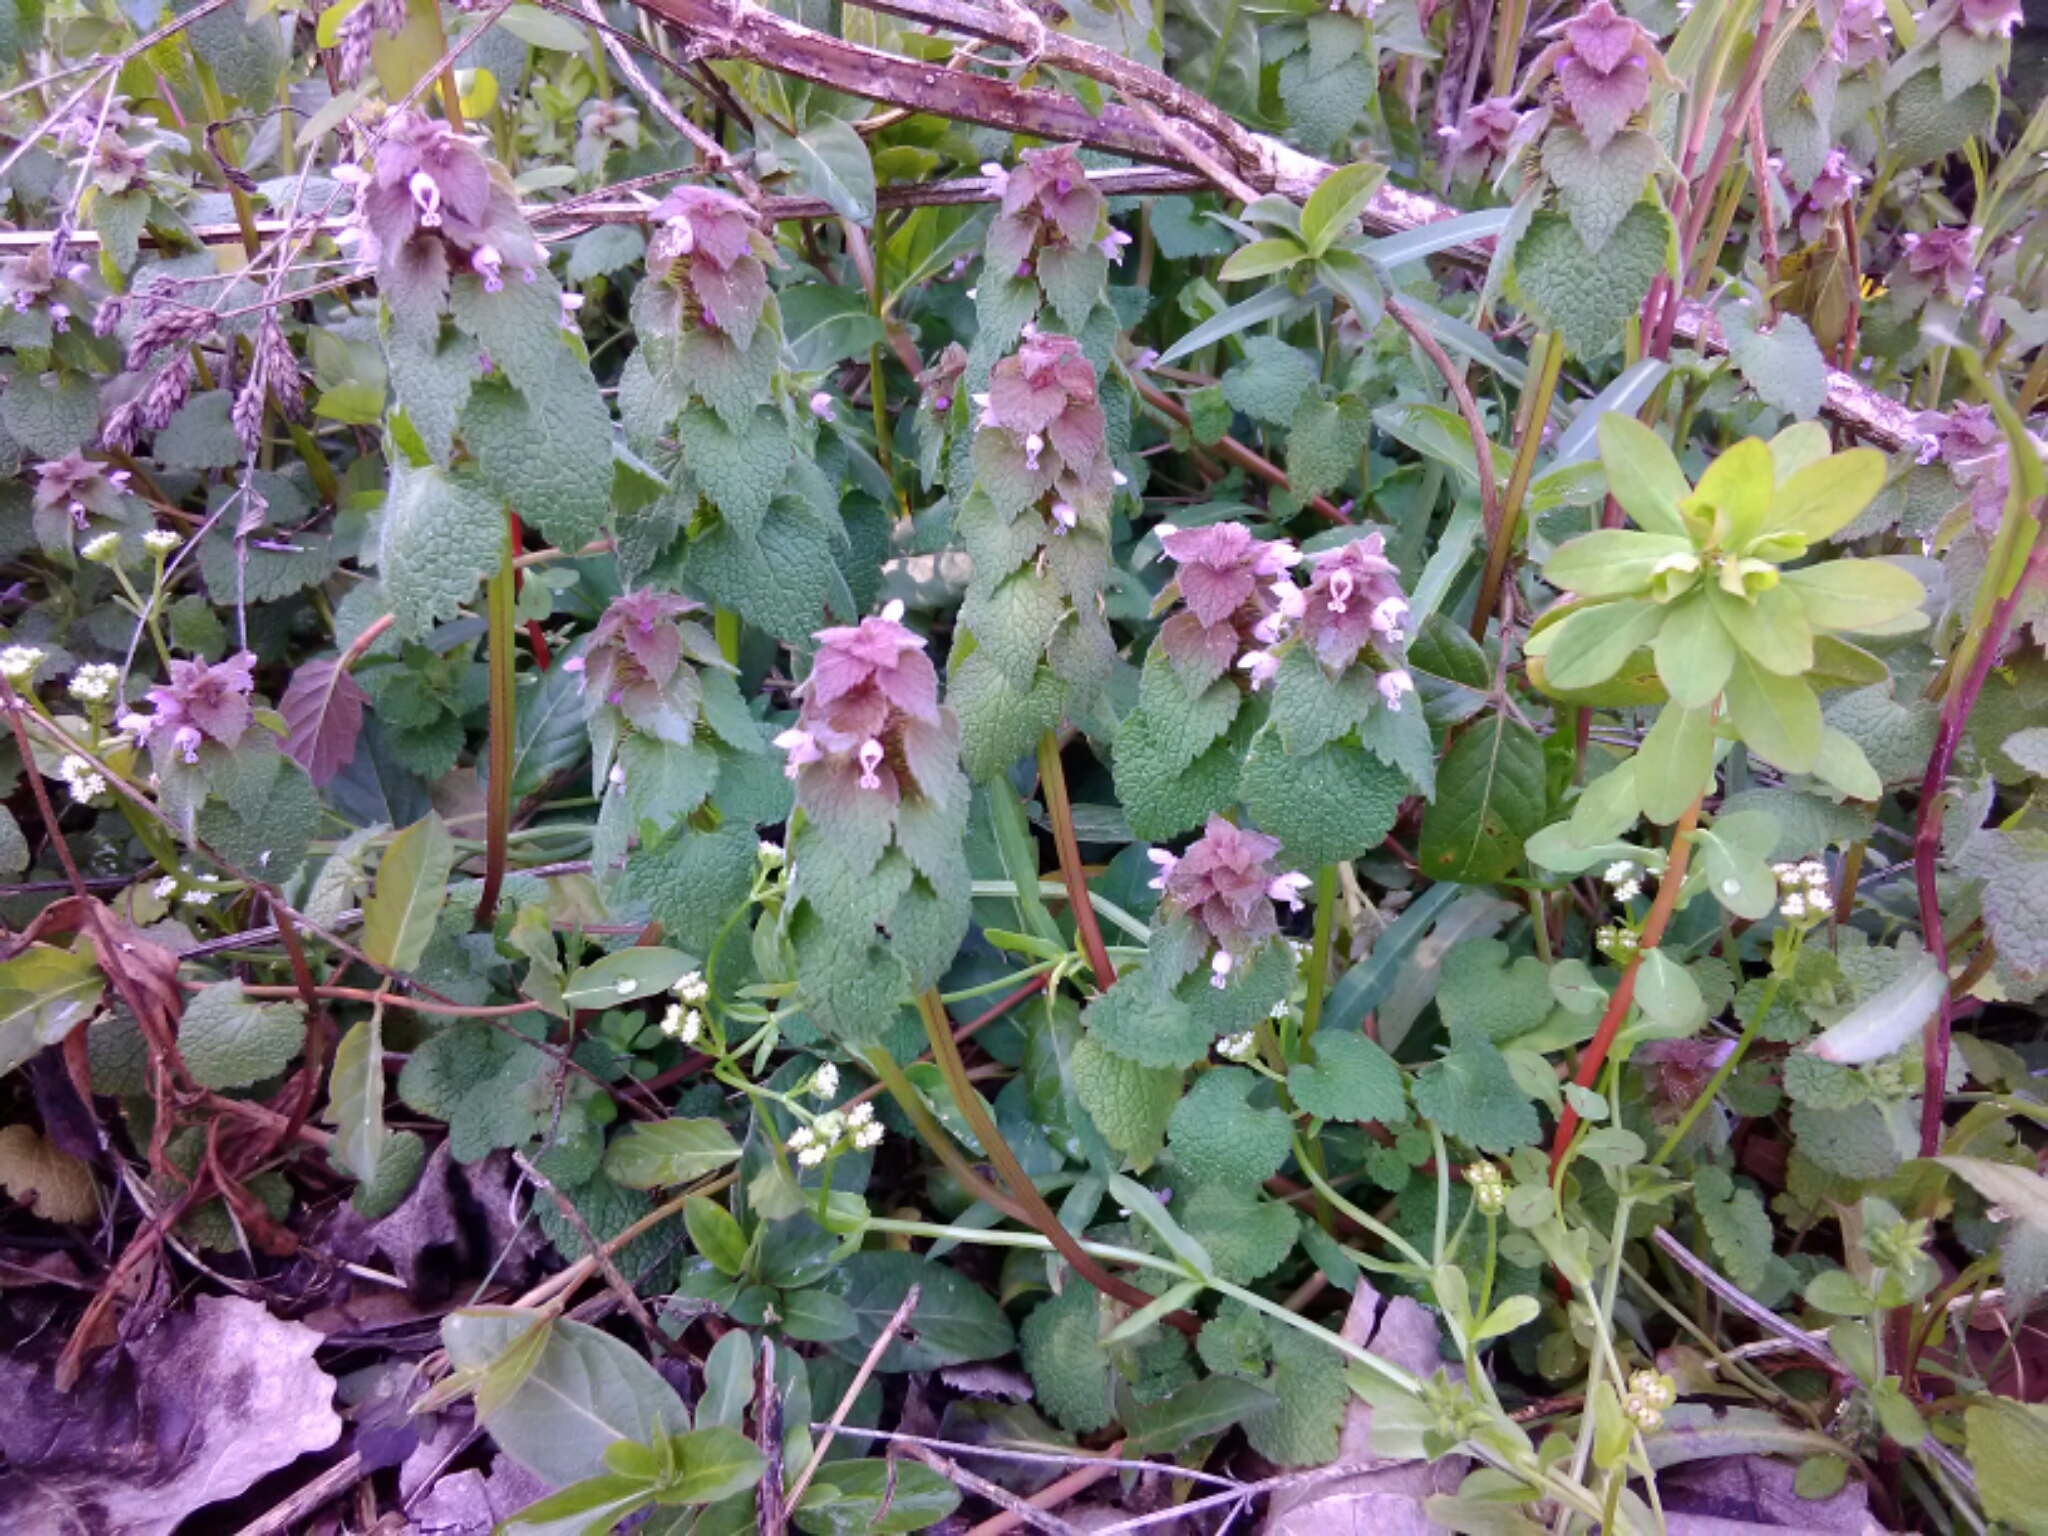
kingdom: Plantae
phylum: Tracheophyta
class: Magnoliopsida
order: Lamiales
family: Lamiaceae
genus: Lamium
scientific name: Lamium purpureum
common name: Red dead-nettle
